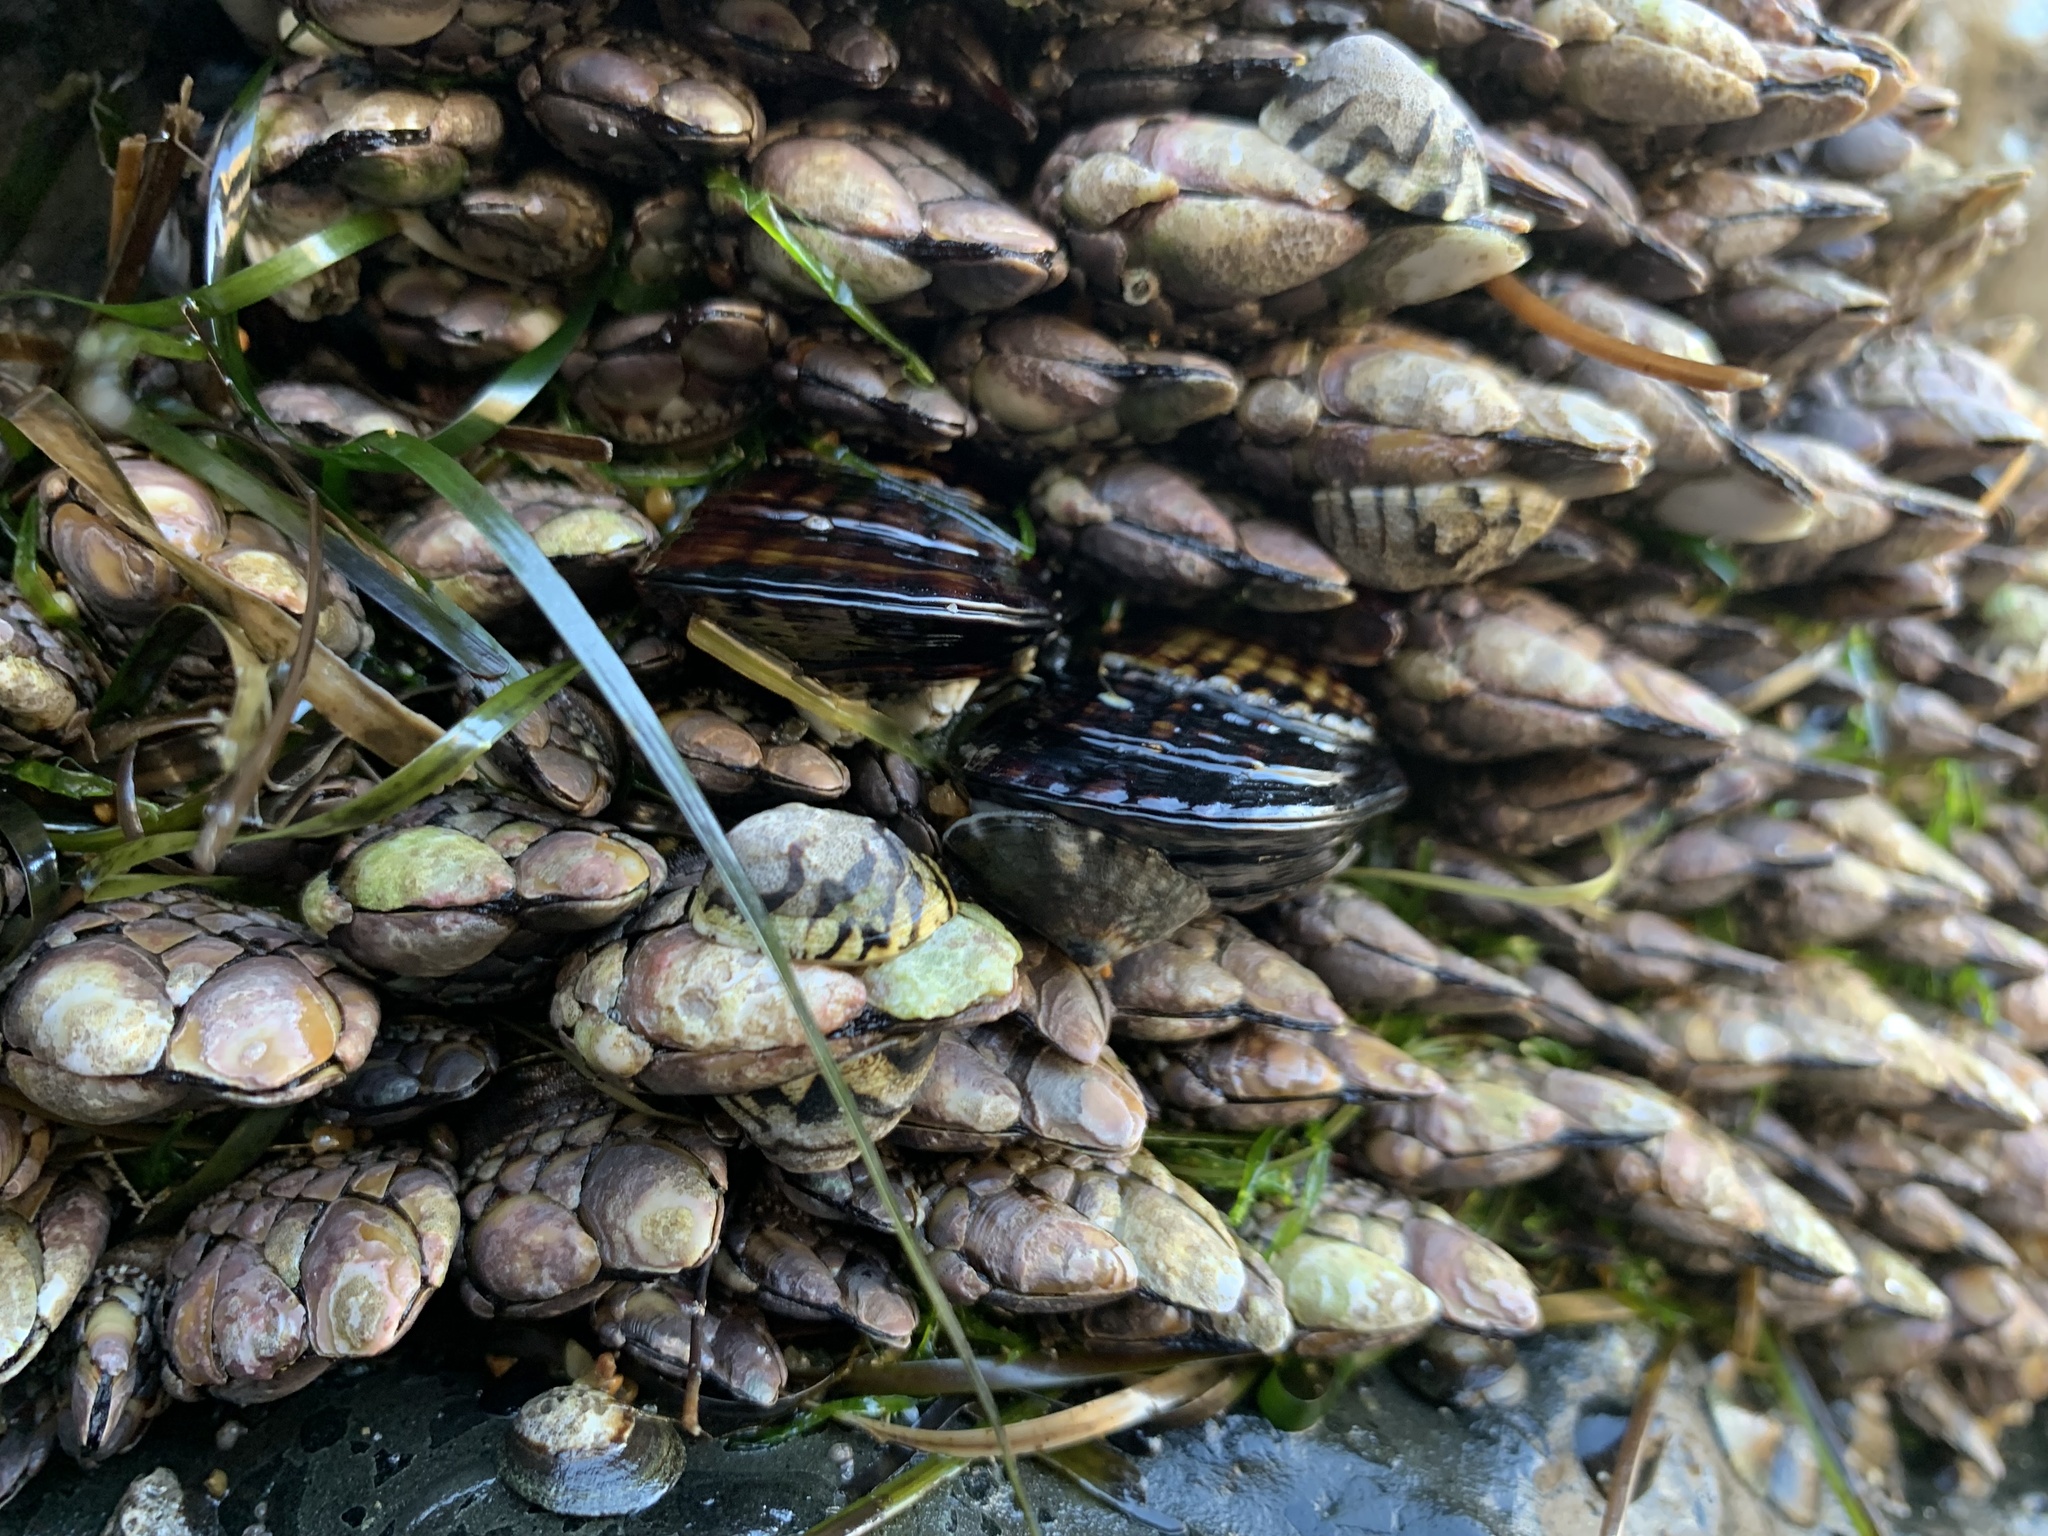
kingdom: Animalia
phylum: Mollusca
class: Bivalvia
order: Mytilida
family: Mytilidae
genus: Mytilus
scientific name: Mytilus californianus
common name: California mussel
